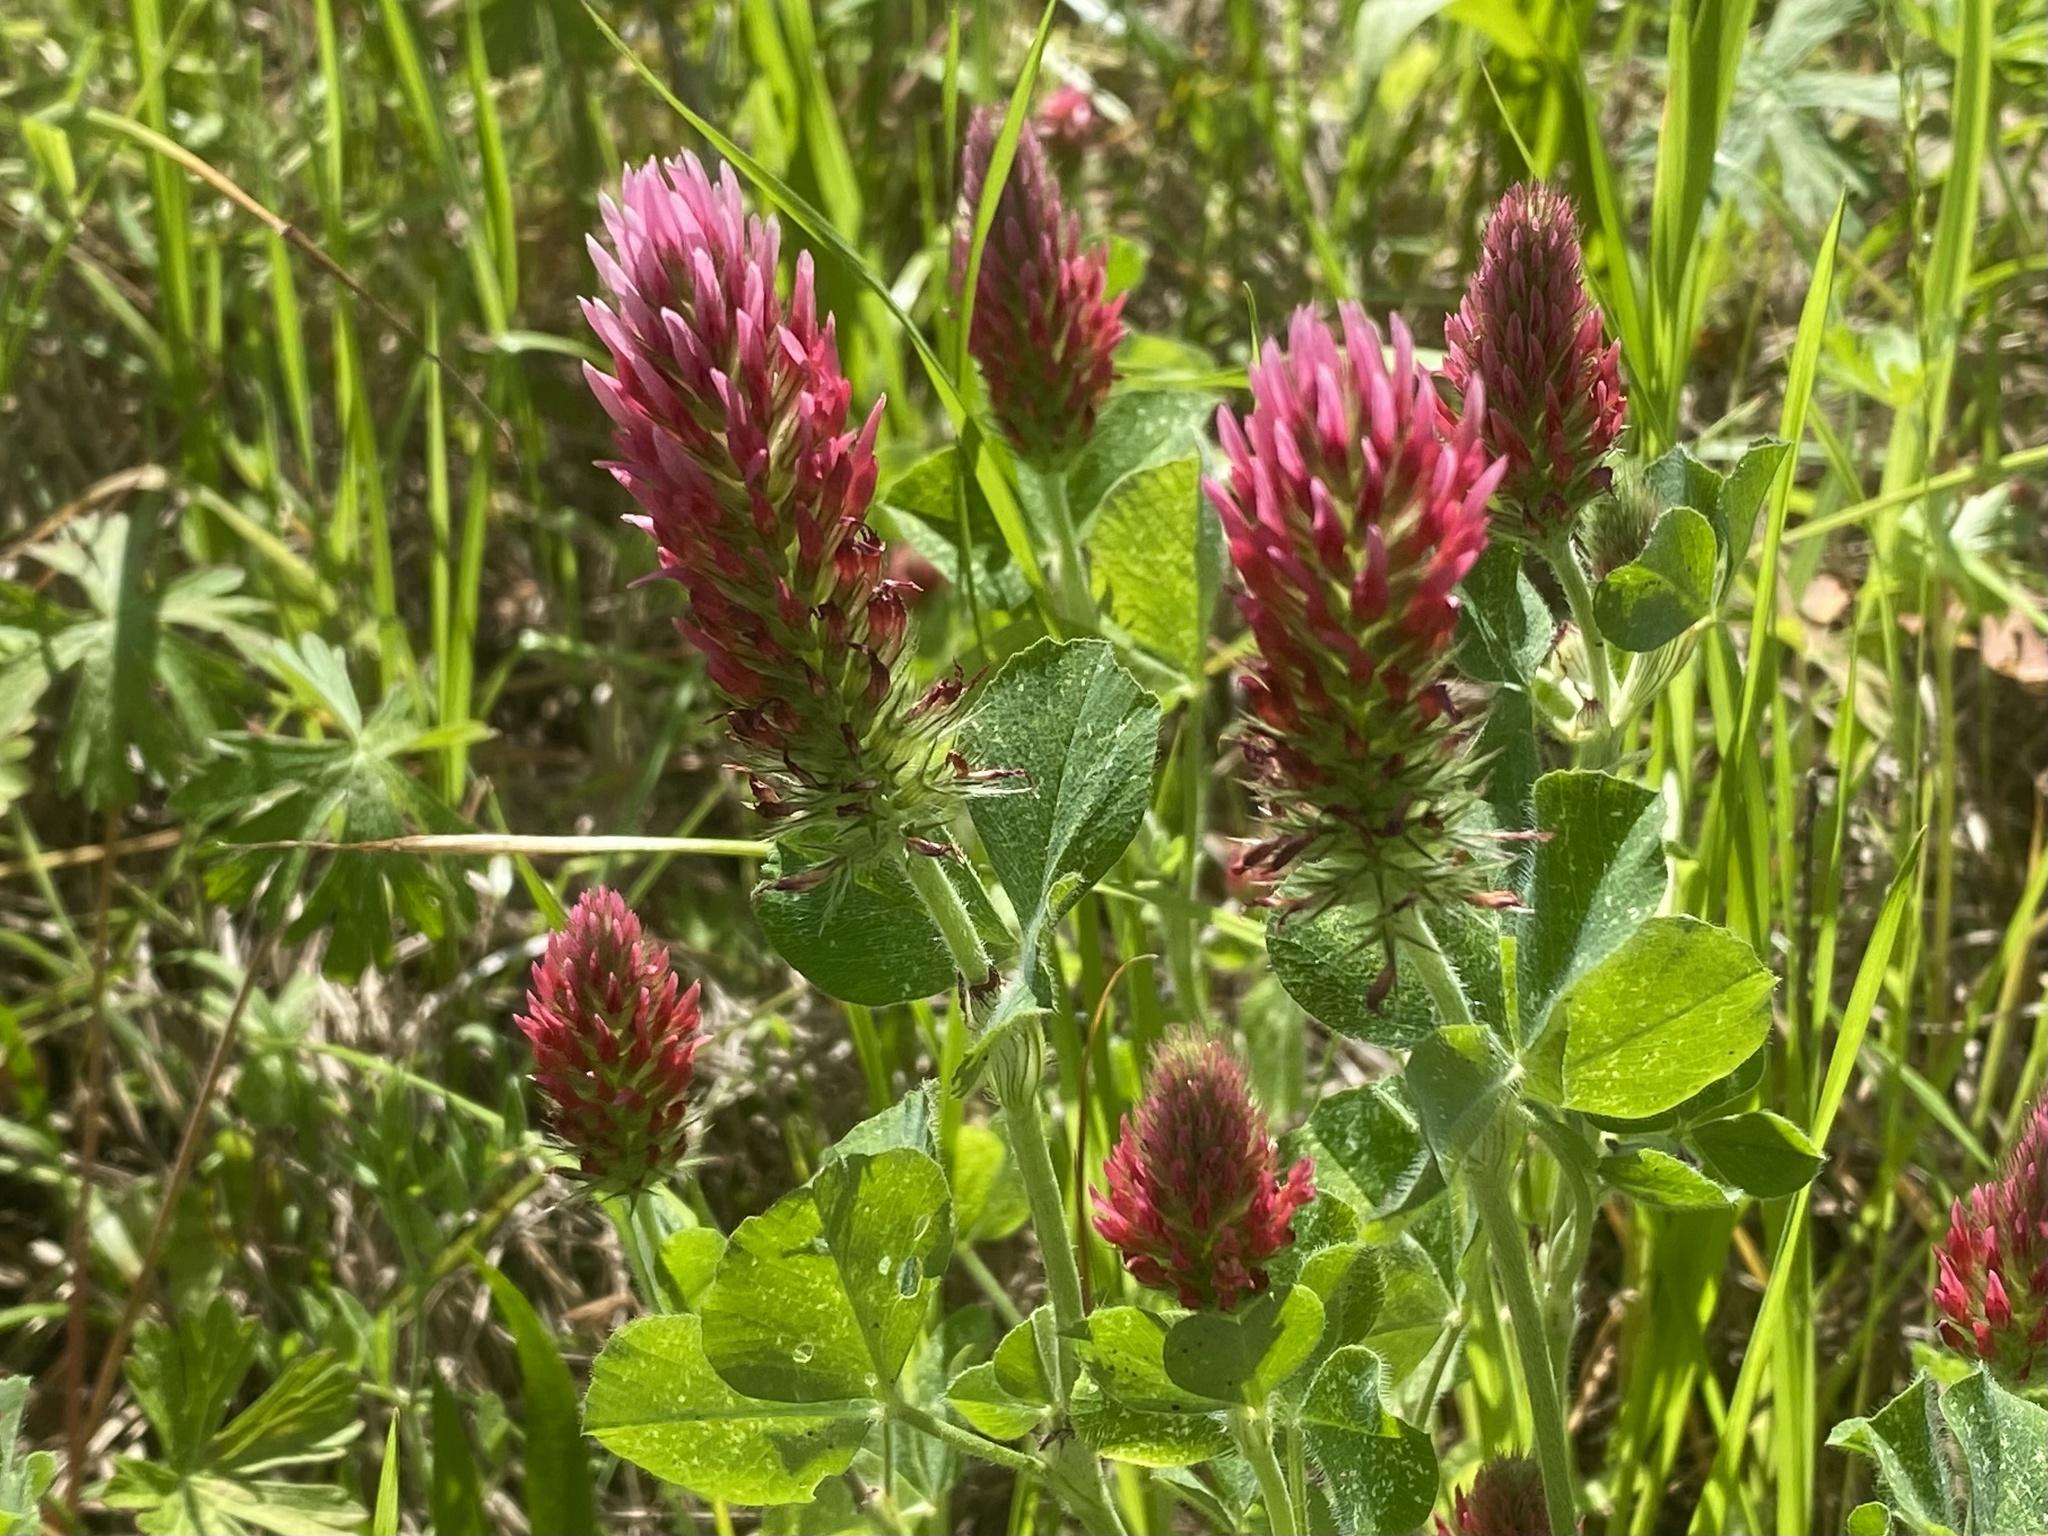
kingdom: Plantae
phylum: Tracheophyta
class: Magnoliopsida
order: Fabales
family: Fabaceae
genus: Trifolium
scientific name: Trifolium incarnatum
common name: Crimson clover
